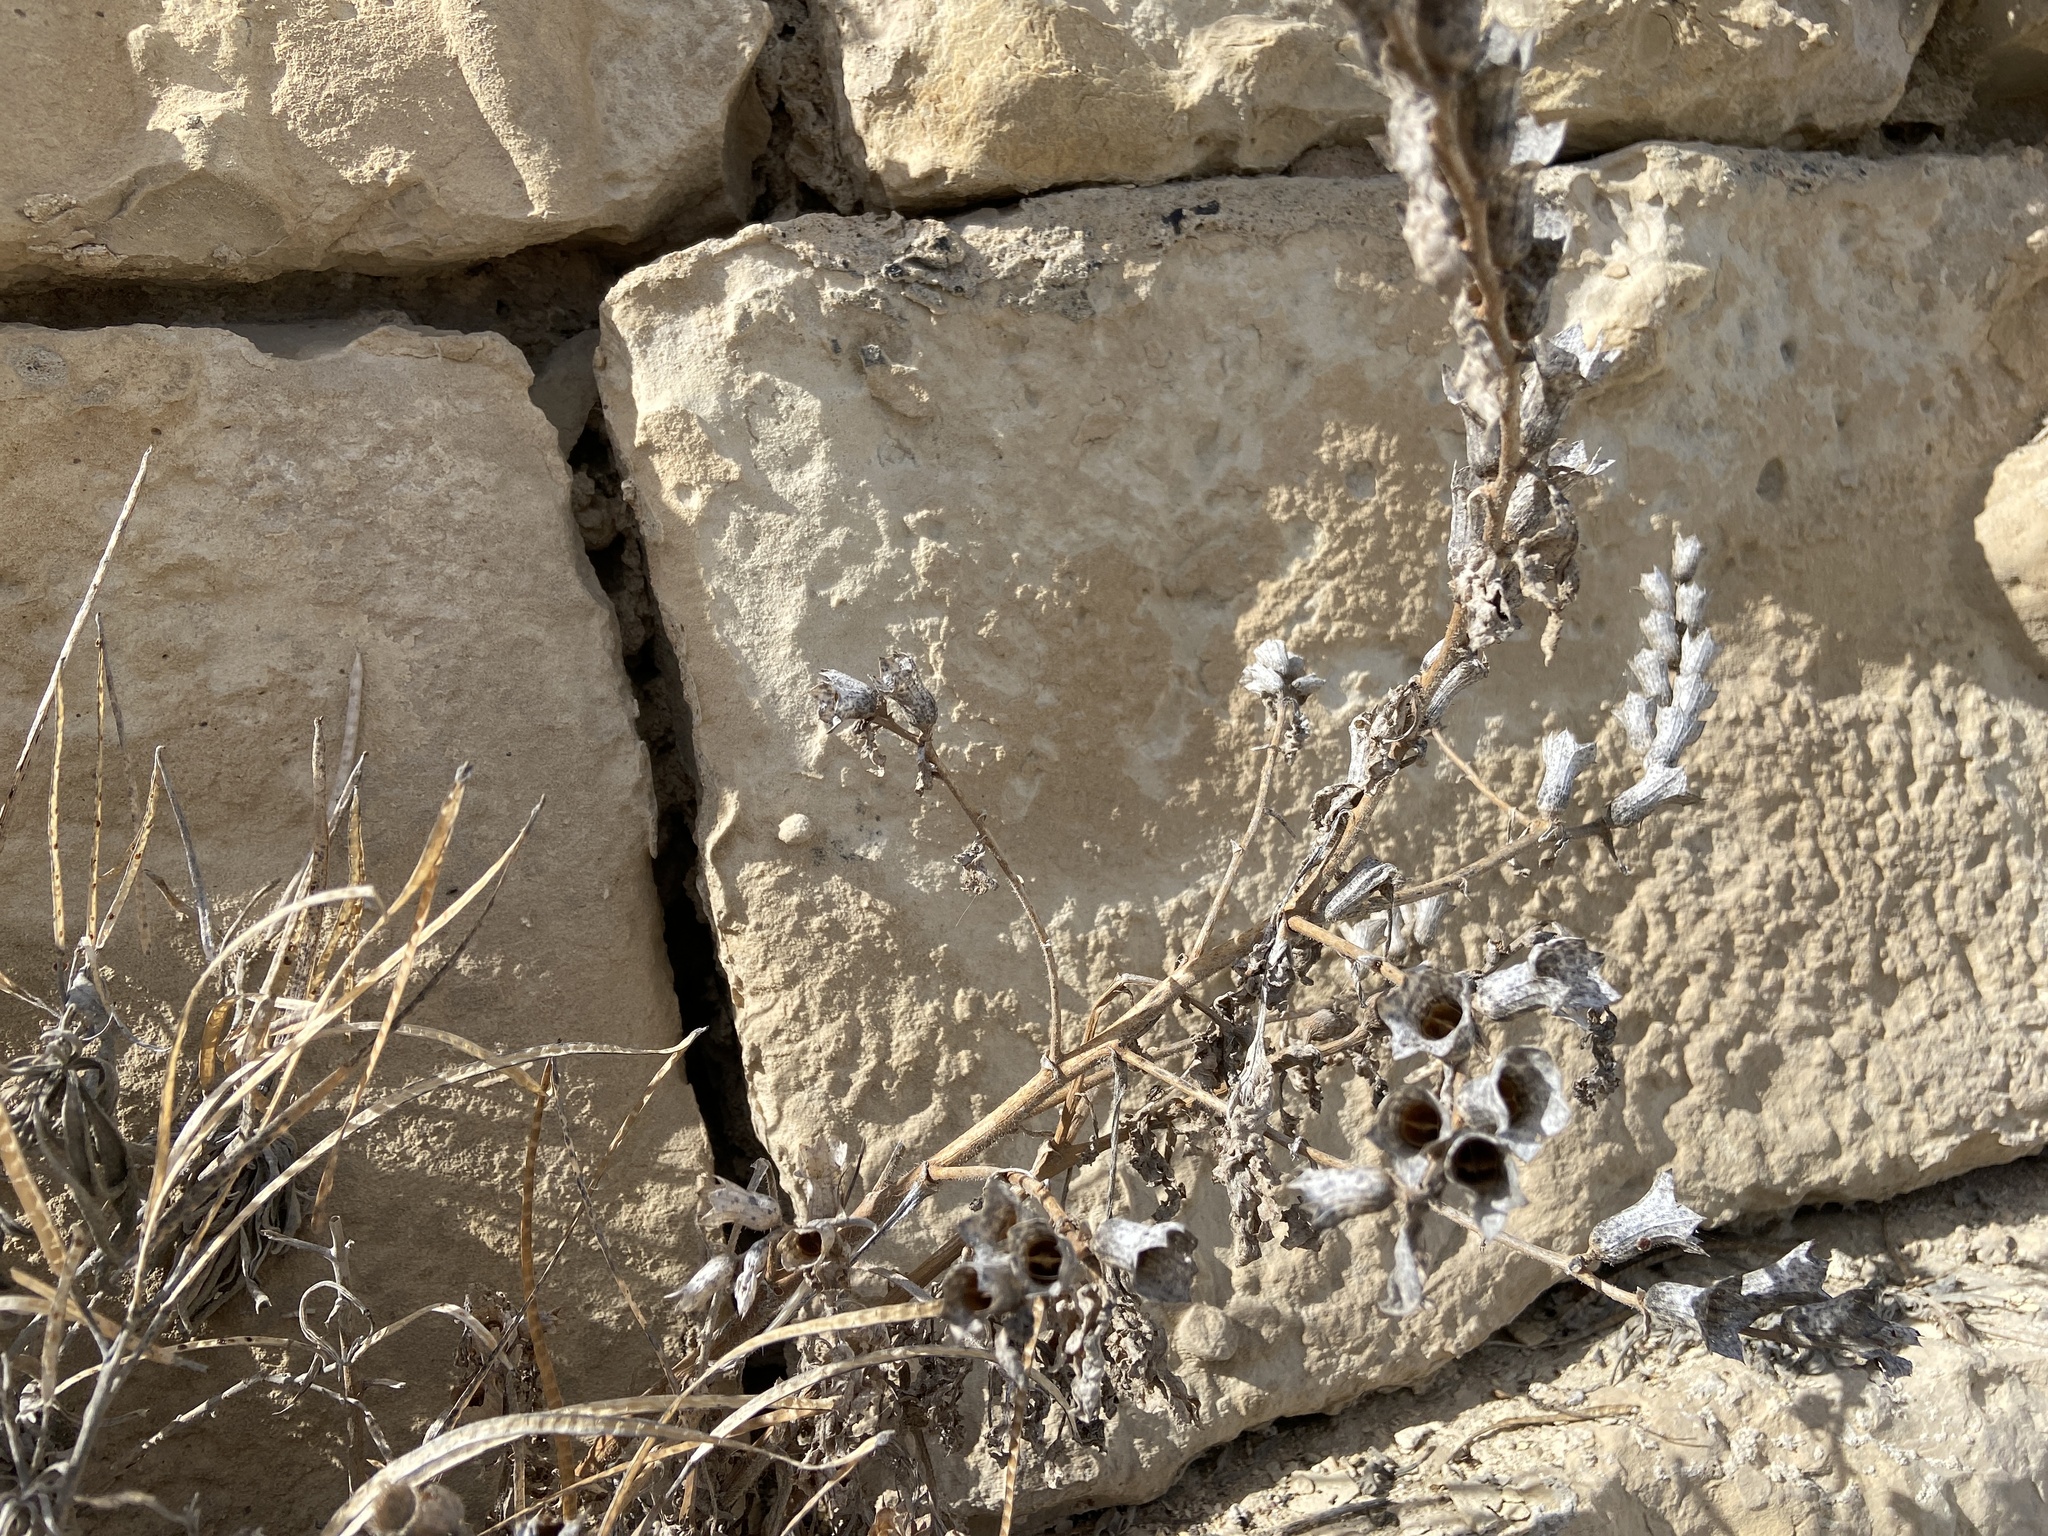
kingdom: Plantae
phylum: Tracheophyta
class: Magnoliopsida
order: Solanales
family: Solanaceae
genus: Hyoscyamus
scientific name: Hyoscyamus albus
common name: White henbane
